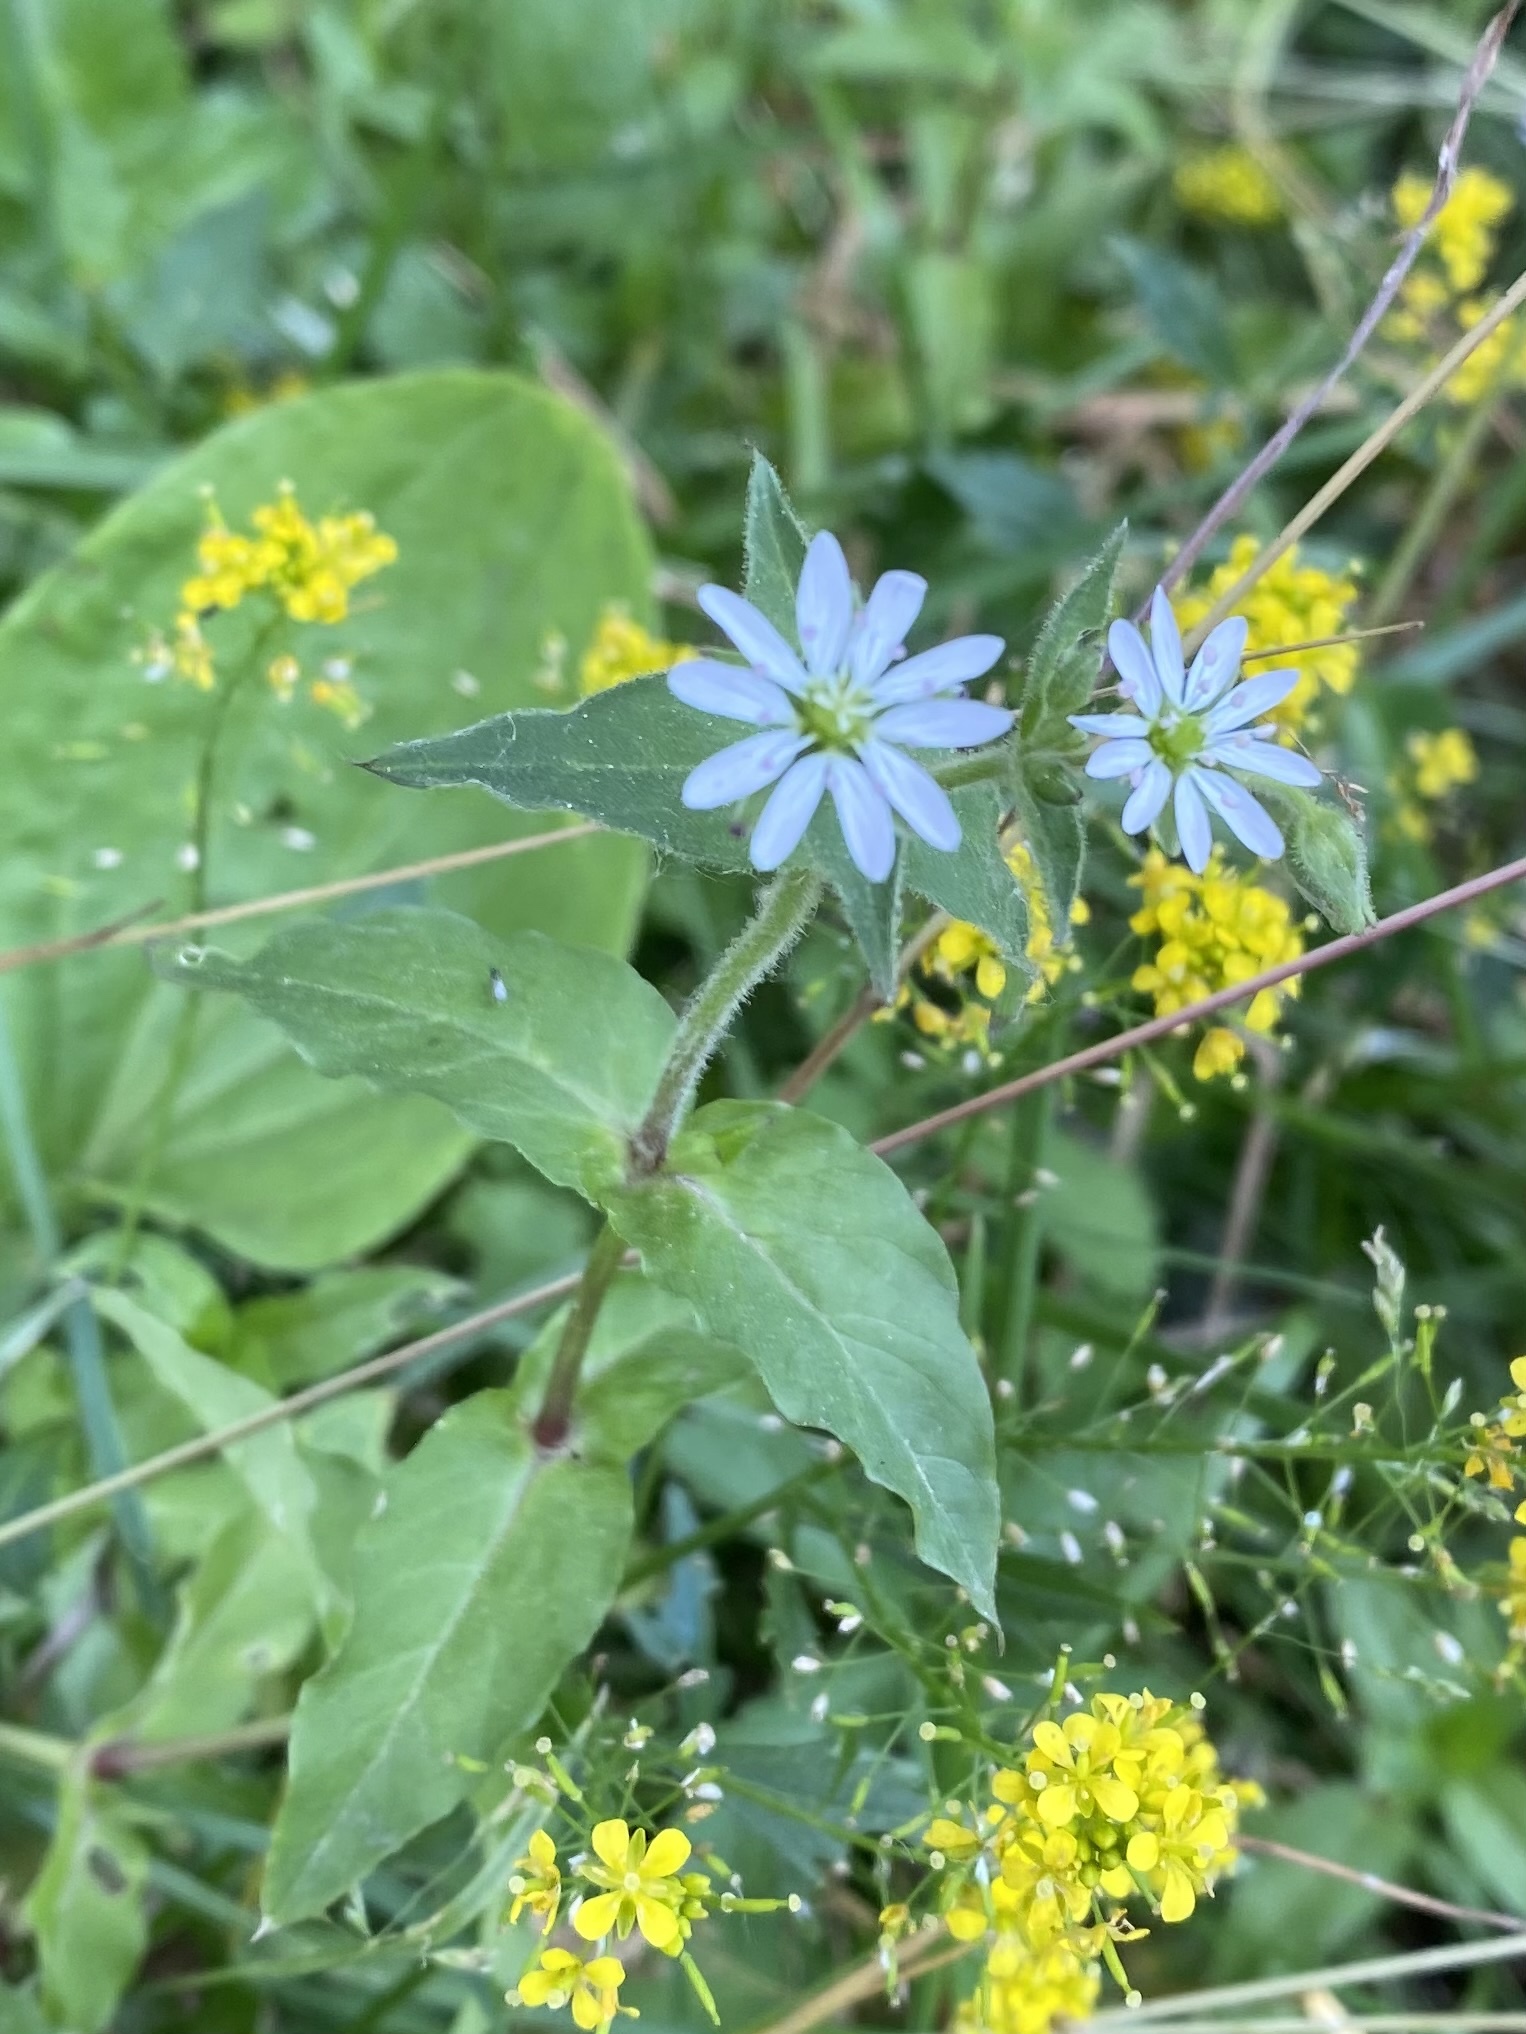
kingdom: Plantae
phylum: Tracheophyta
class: Magnoliopsida
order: Caryophyllales
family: Caryophyllaceae
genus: Stellaria
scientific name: Stellaria aquatica
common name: Water chickweed
